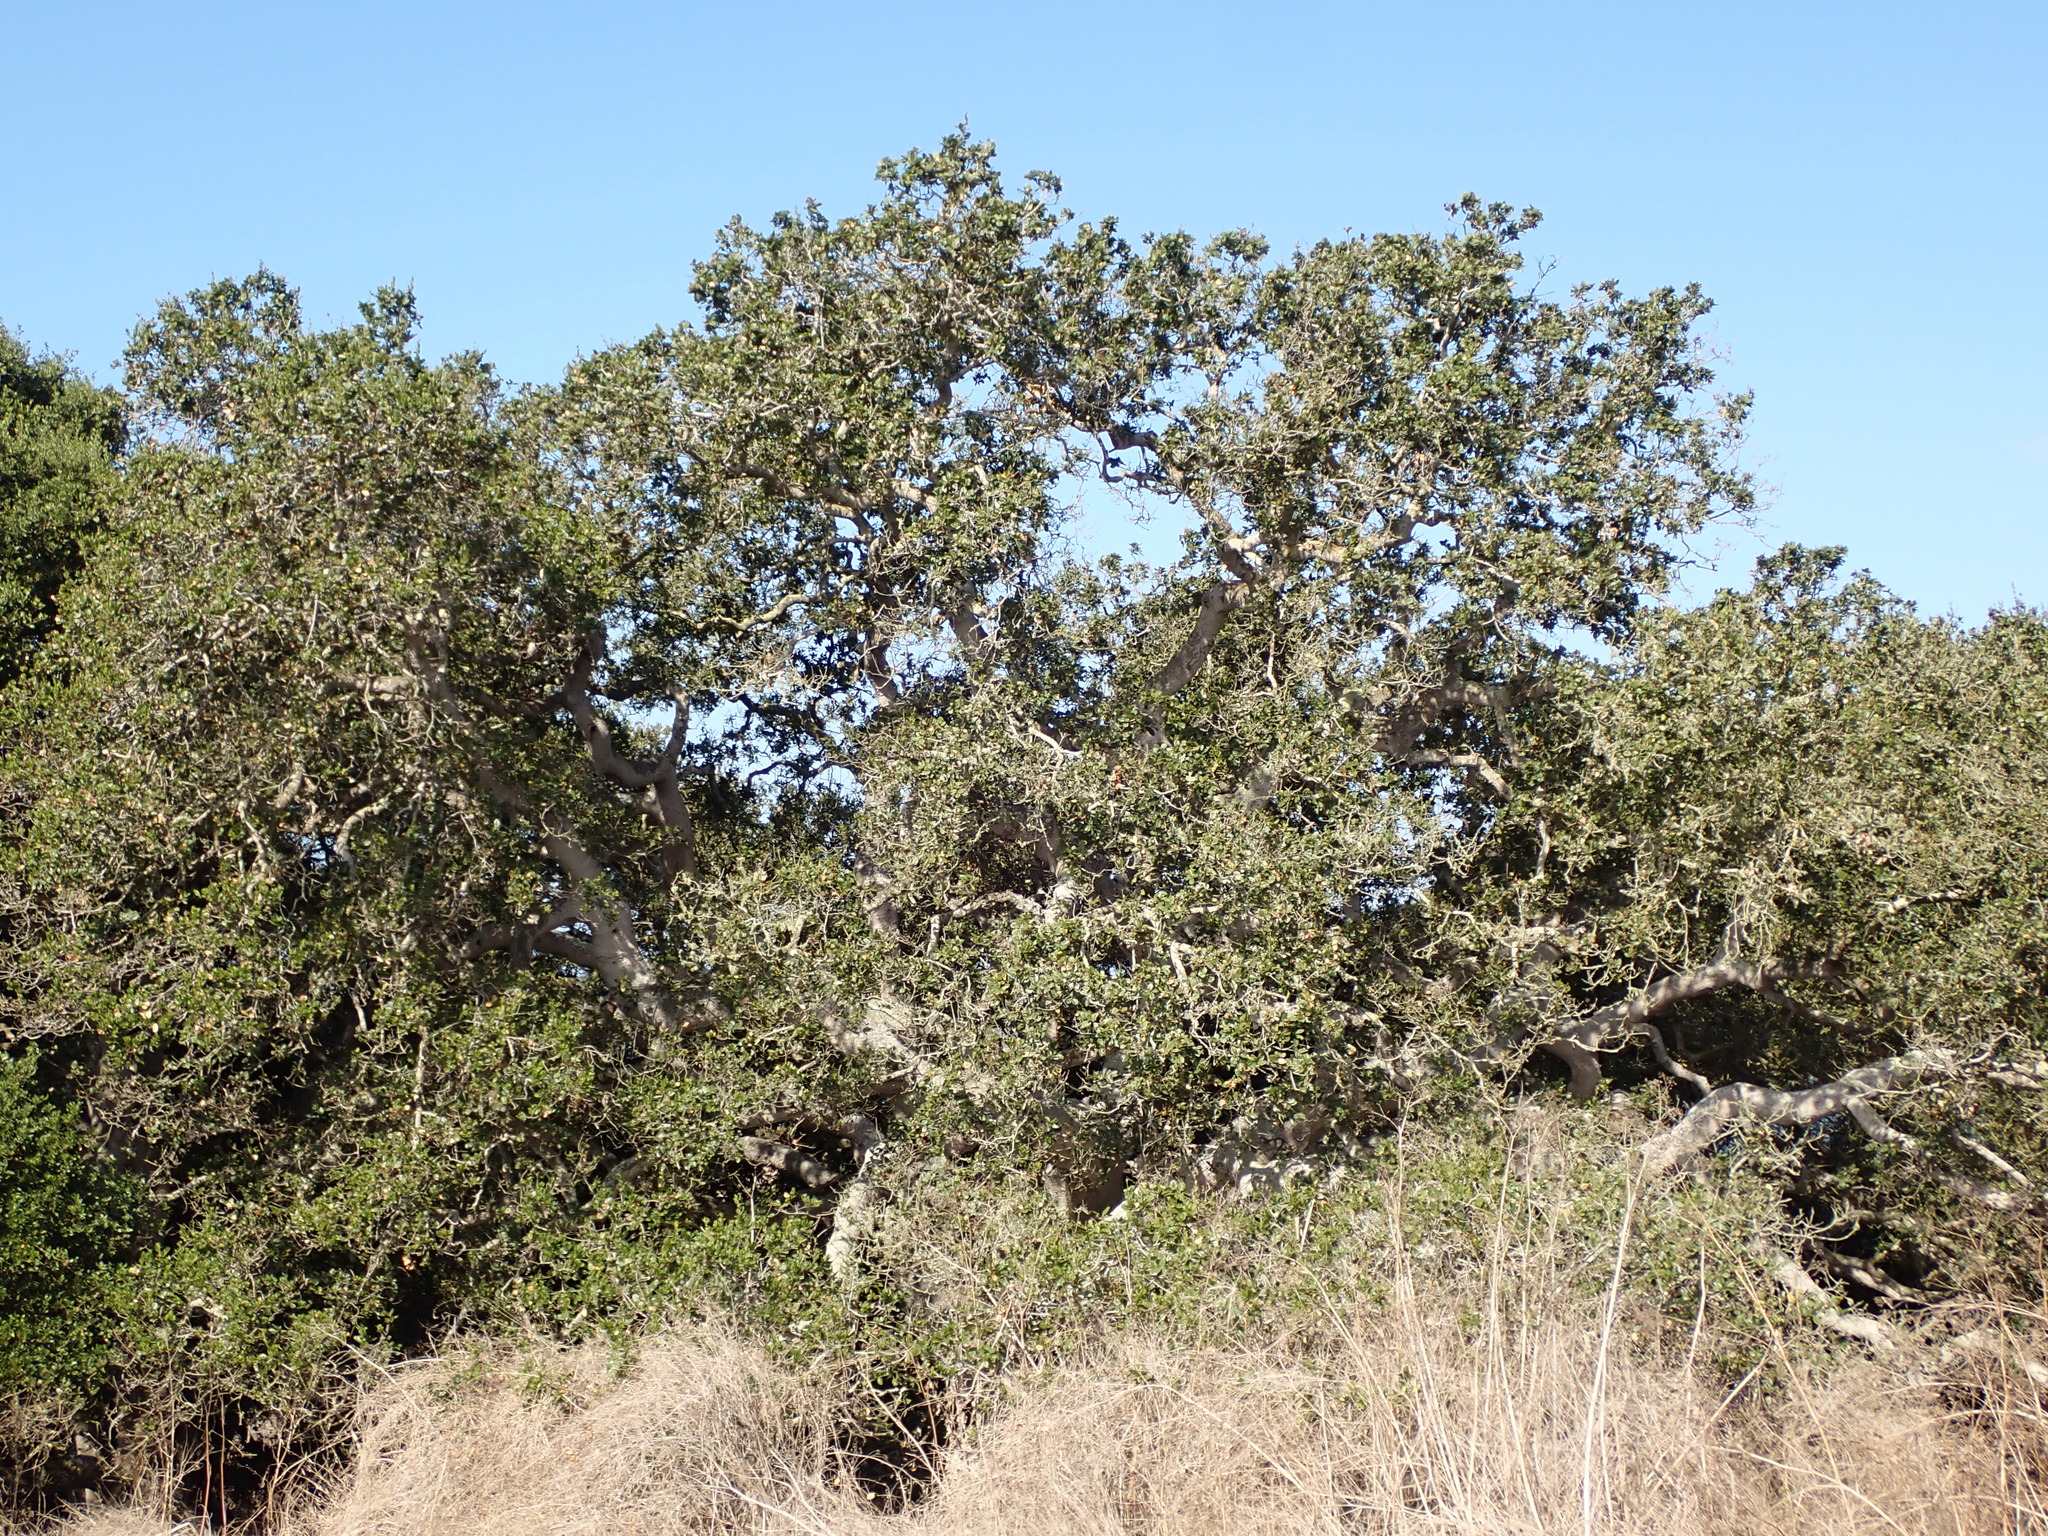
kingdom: Plantae
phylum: Tracheophyta
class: Magnoliopsida
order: Fagales
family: Fagaceae
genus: Quercus
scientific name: Quercus agrifolia
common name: California live oak
